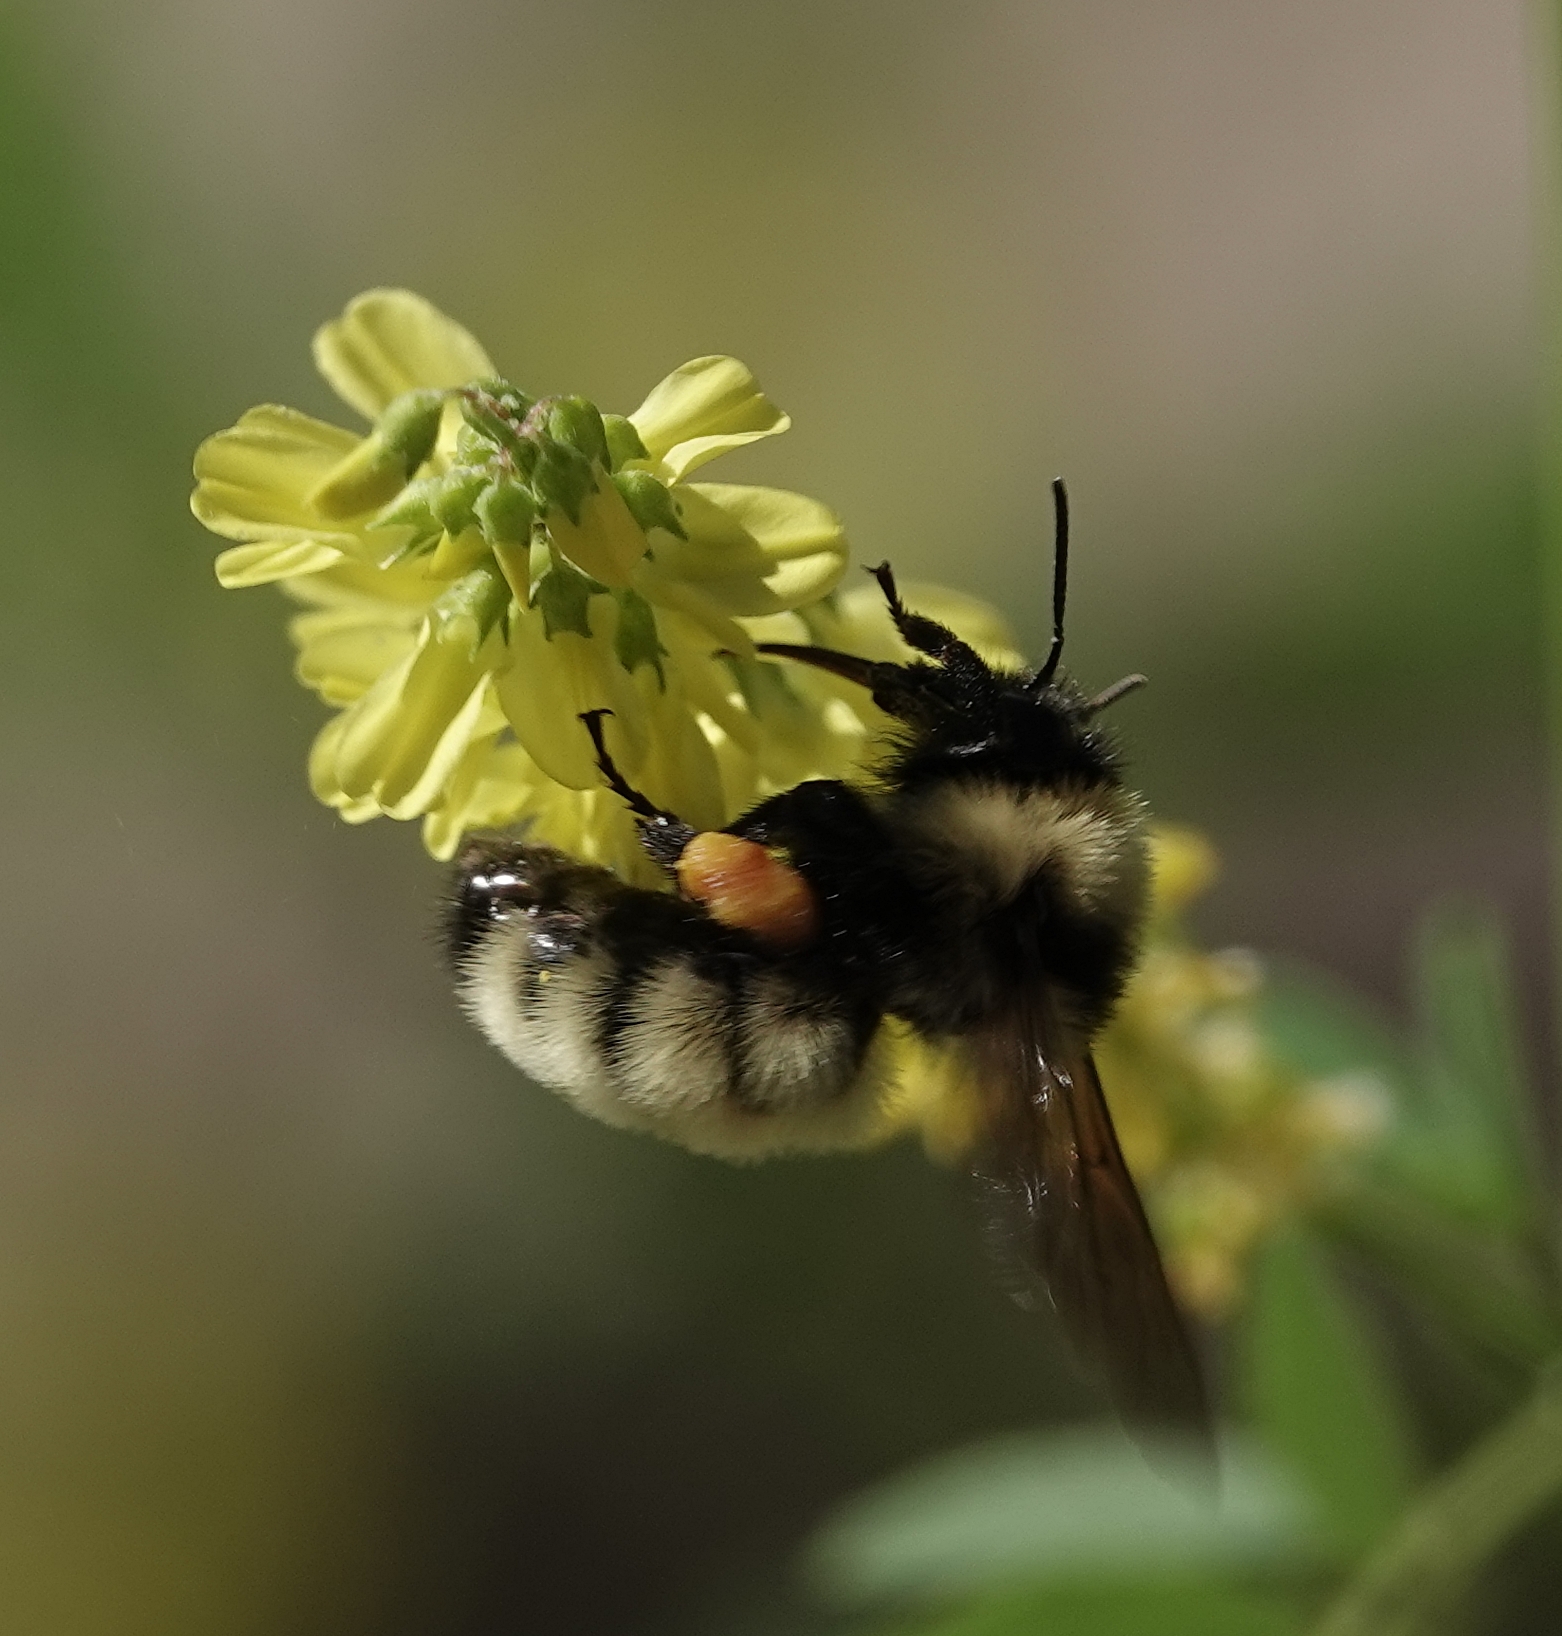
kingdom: Animalia
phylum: Arthropoda
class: Insecta
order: Hymenoptera
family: Apidae
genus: Bombus
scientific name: Bombus fervidus
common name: Yellow bumble bee
